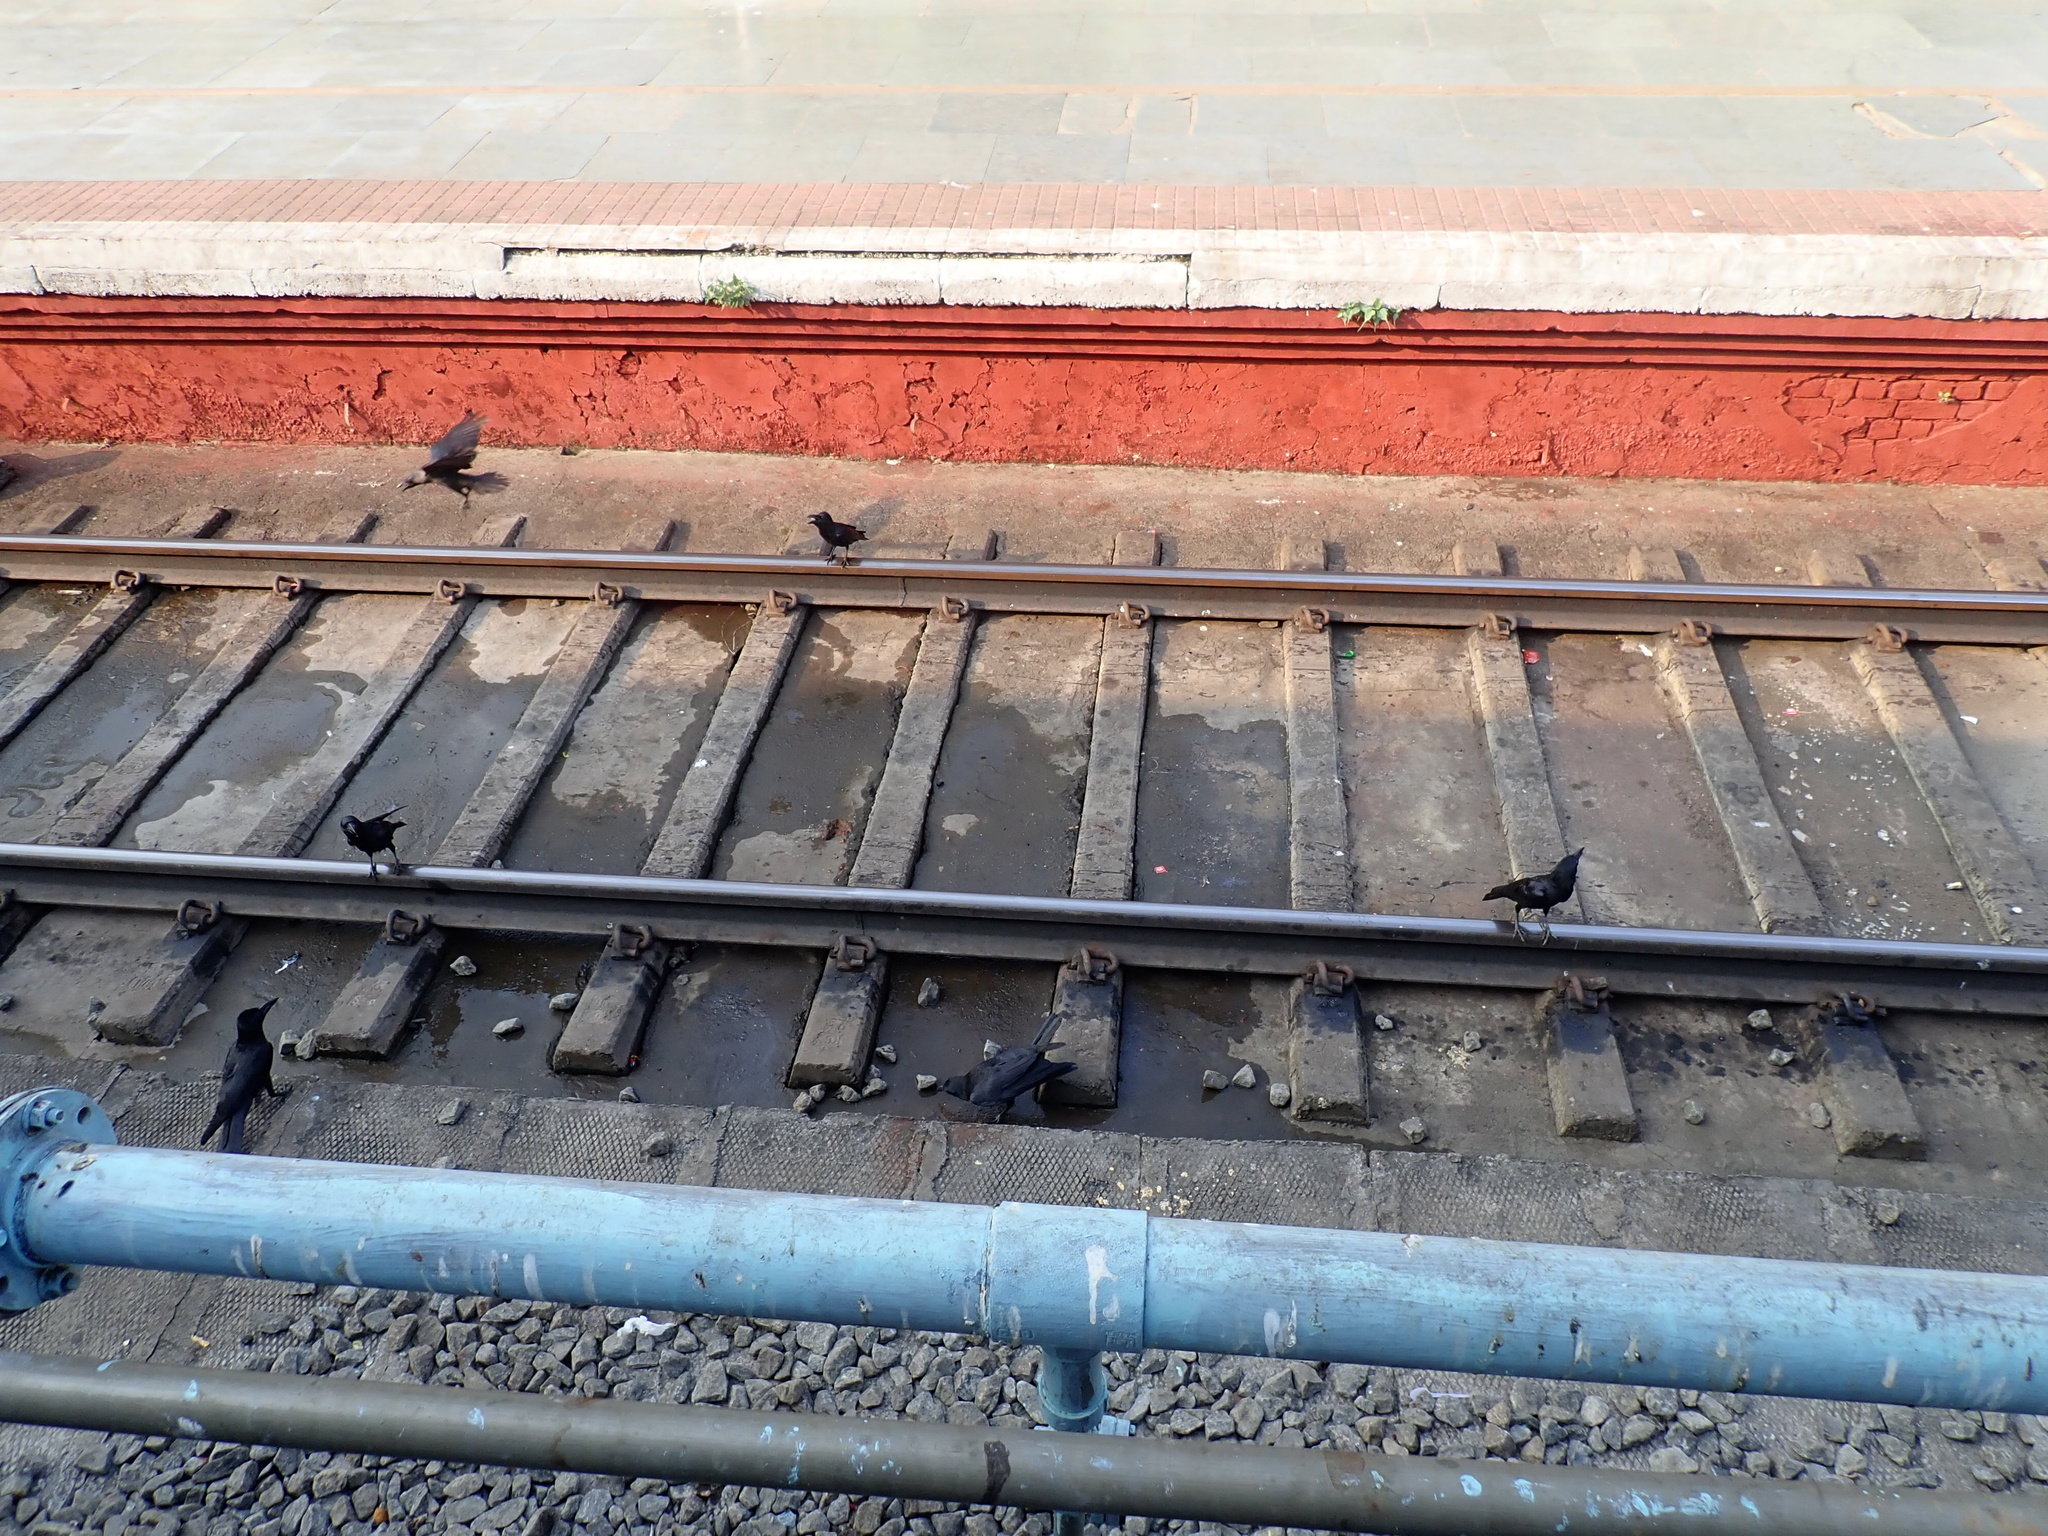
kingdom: Animalia
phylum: Chordata
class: Aves
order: Passeriformes
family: Corvidae
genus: Corvus
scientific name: Corvus macrorhynchos
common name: Large-billed crow
